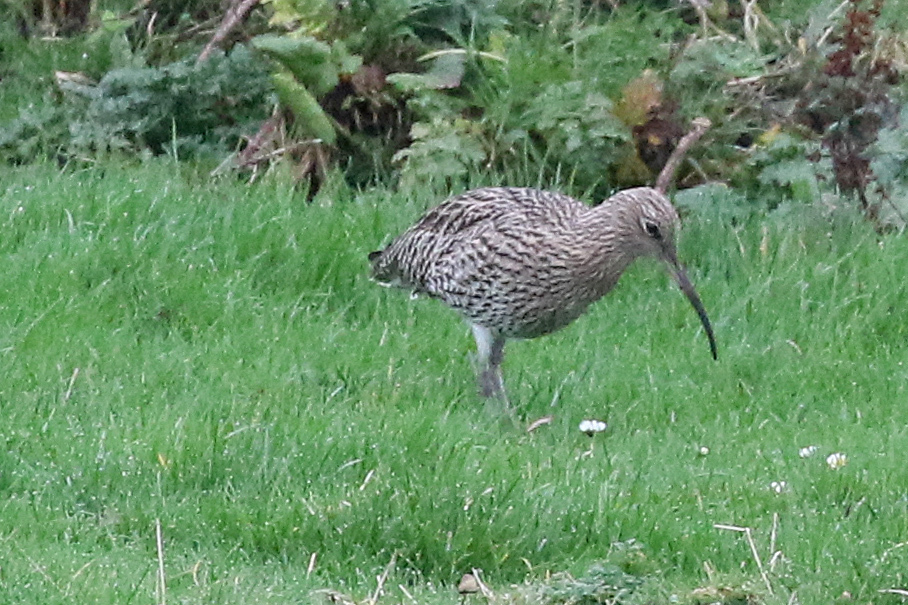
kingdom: Animalia
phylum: Chordata
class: Aves
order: Charadriiformes
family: Scolopacidae
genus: Numenius
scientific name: Numenius arquata
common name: Eurasian curlew
